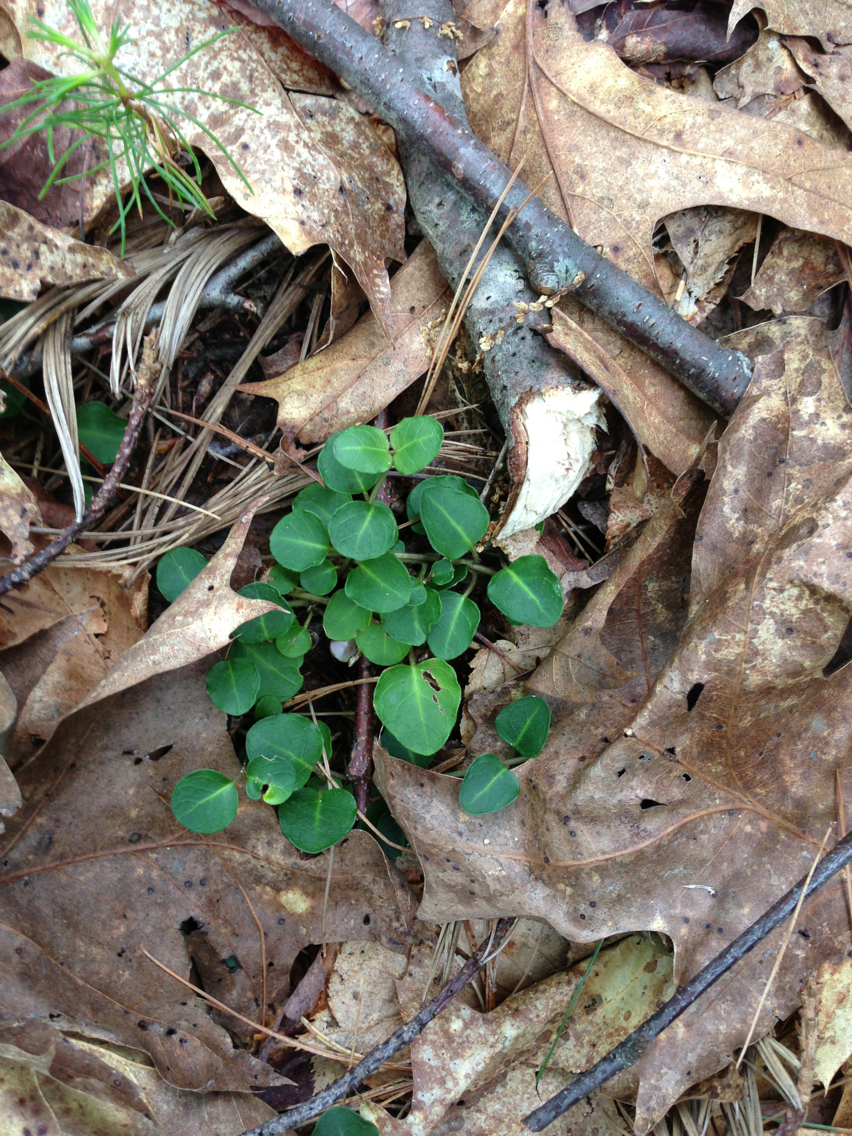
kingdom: Plantae
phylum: Tracheophyta
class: Magnoliopsida
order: Gentianales
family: Rubiaceae
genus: Mitchella
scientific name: Mitchella repens
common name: Partridge-berry
